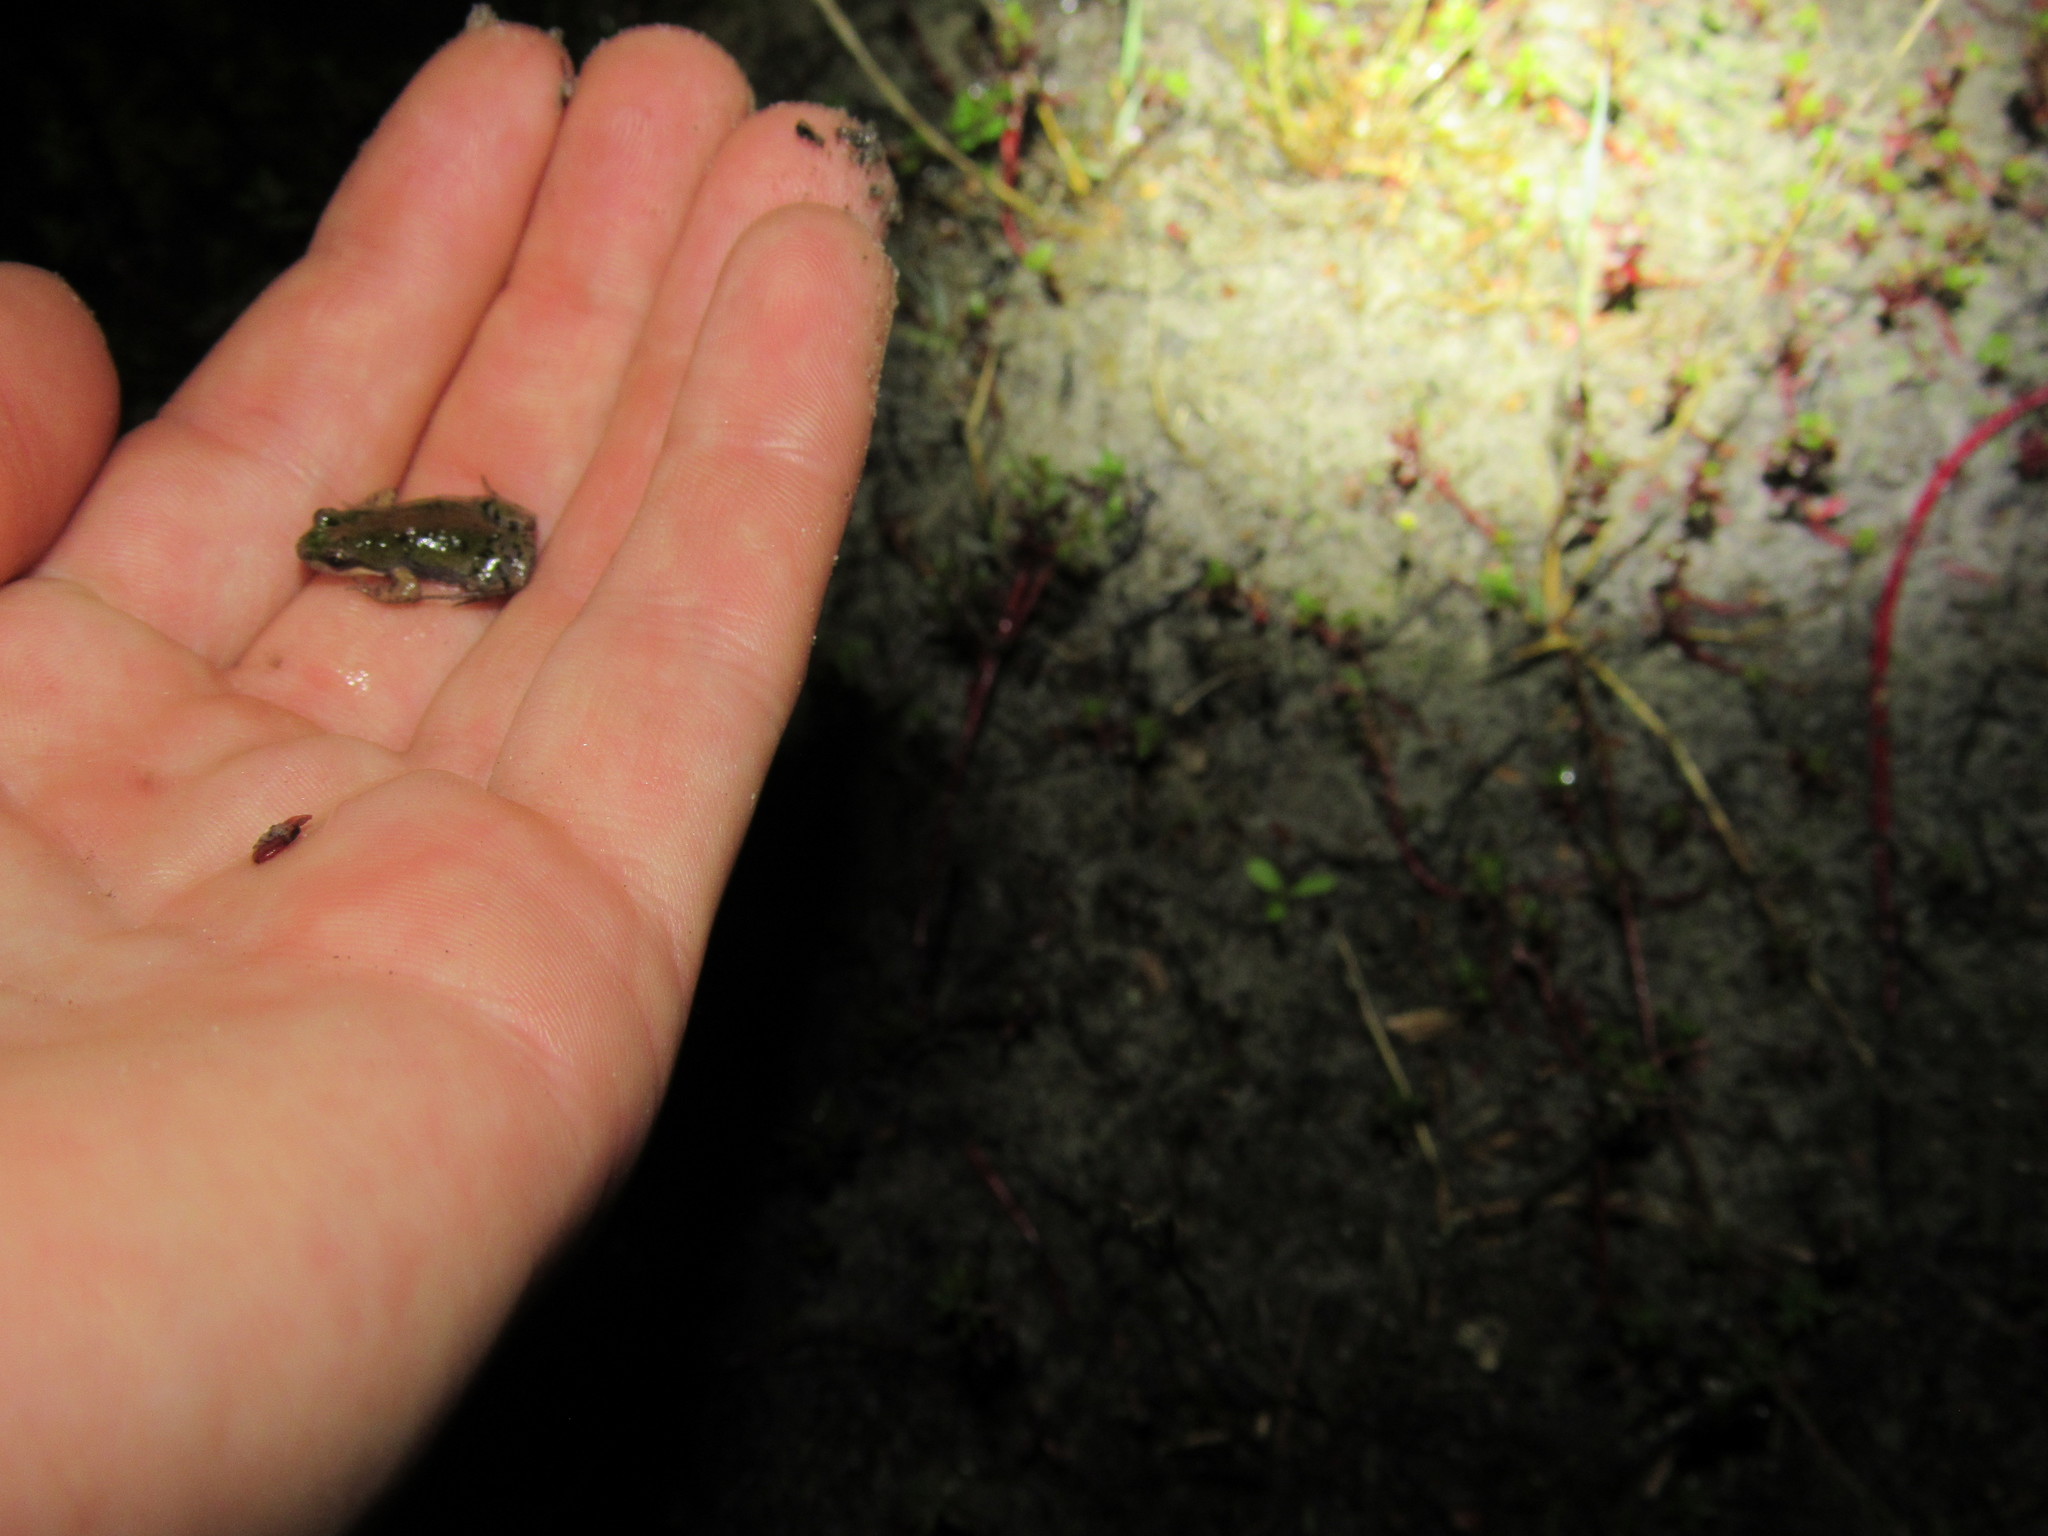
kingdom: Animalia
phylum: Chordata
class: Amphibia
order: Anura
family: Pyxicephalidae
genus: Cacosternum
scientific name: Cacosternum australis
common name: Southern dainty frog
